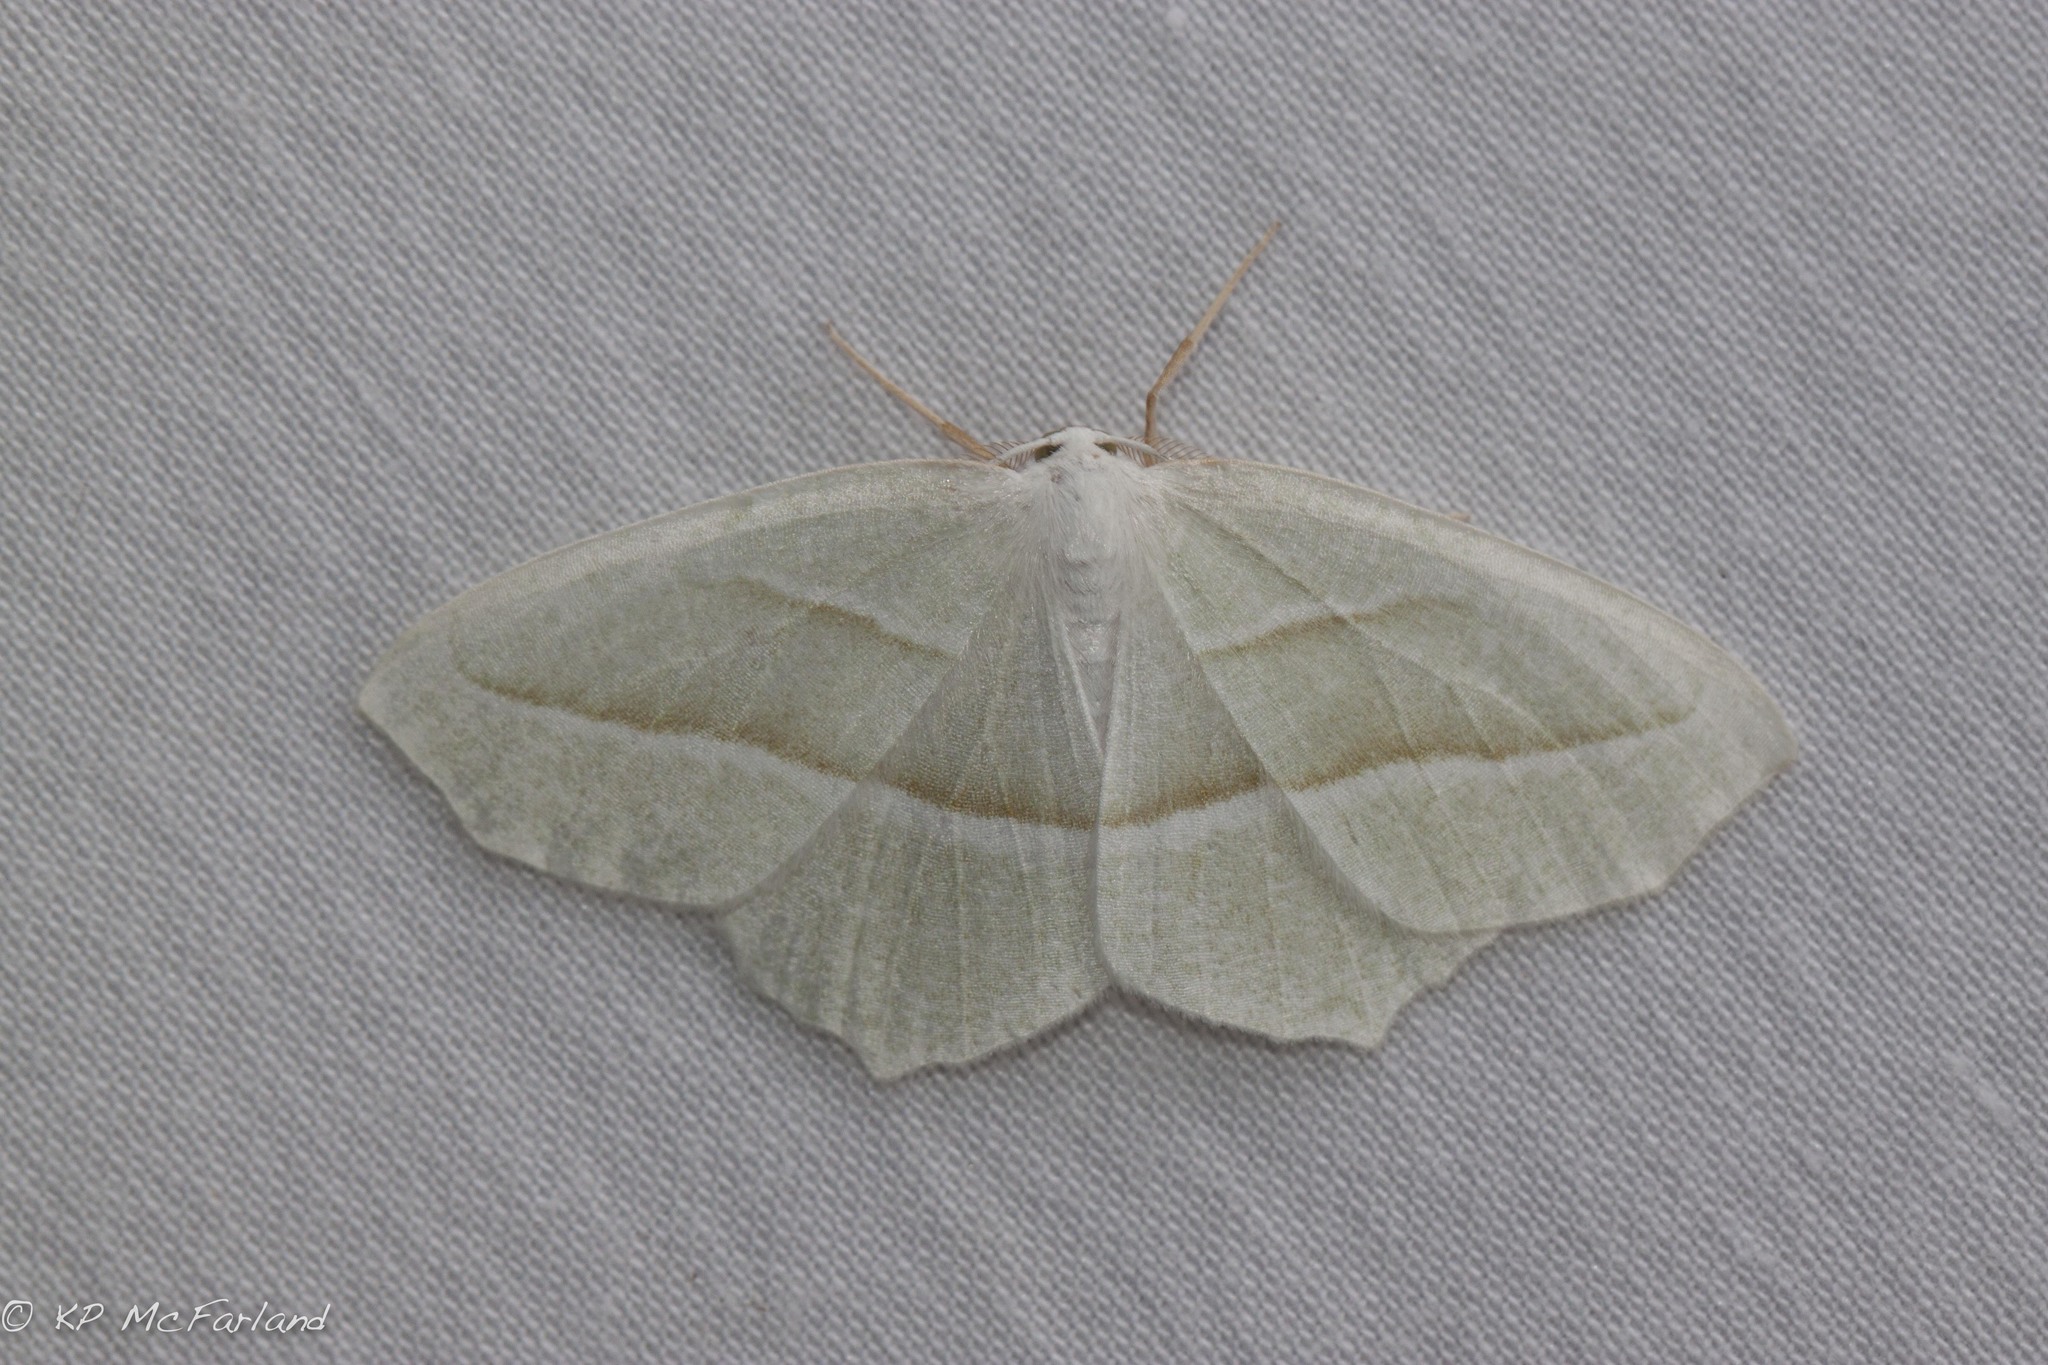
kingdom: Animalia
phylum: Arthropoda
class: Insecta
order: Lepidoptera
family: Geometridae
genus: Campaea
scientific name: Campaea perlata
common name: Fringed looper
